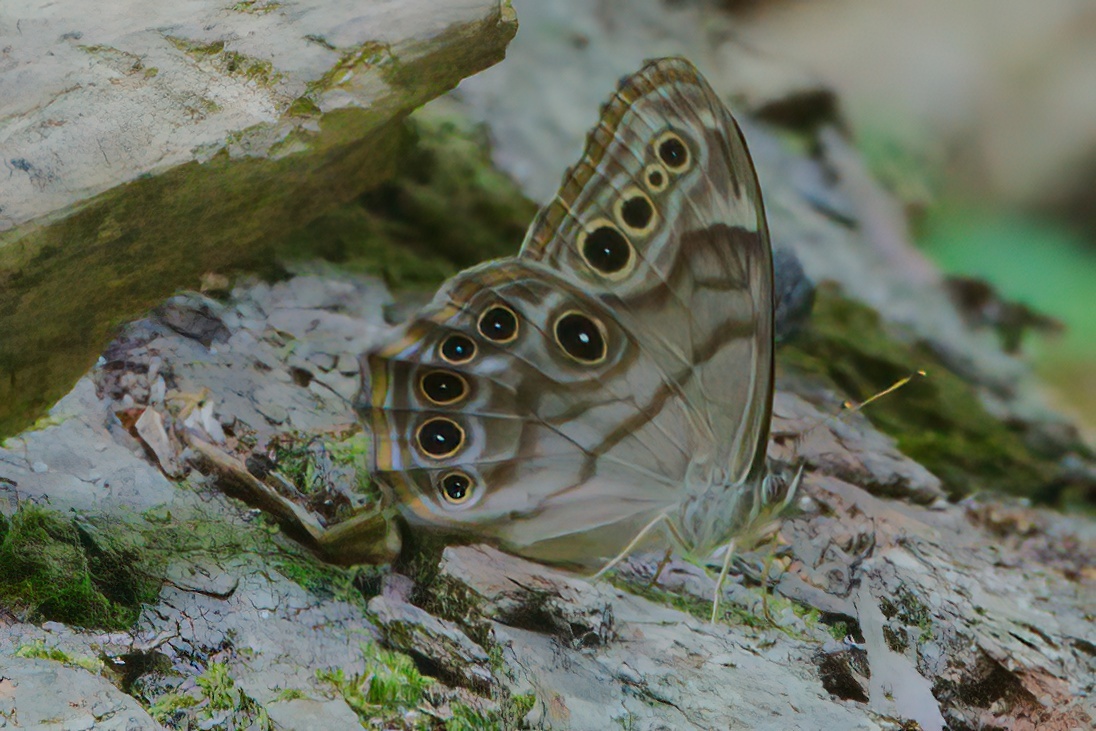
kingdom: Animalia
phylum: Arthropoda
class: Insecta
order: Lepidoptera
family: Nymphalidae
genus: Lethe
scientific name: Lethe anthedon
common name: Northern pearly-eye
